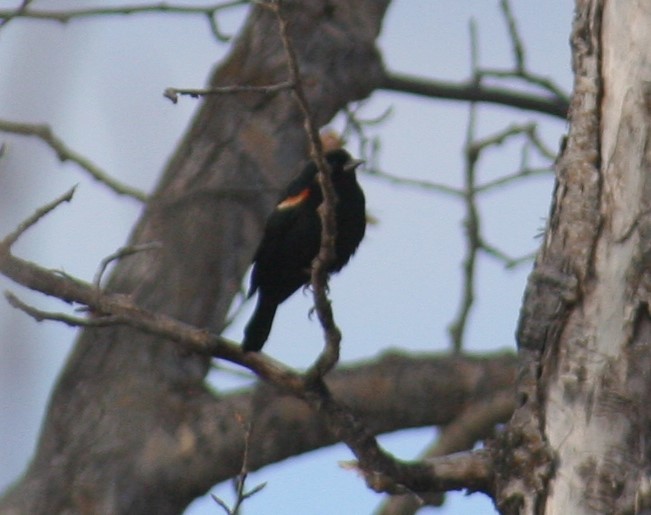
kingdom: Animalia
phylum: Chordata
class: Aves
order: Passeriformes
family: Icteridae
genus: Agelaius
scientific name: Agelaius phoeniceus
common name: Red-winged blackbird
